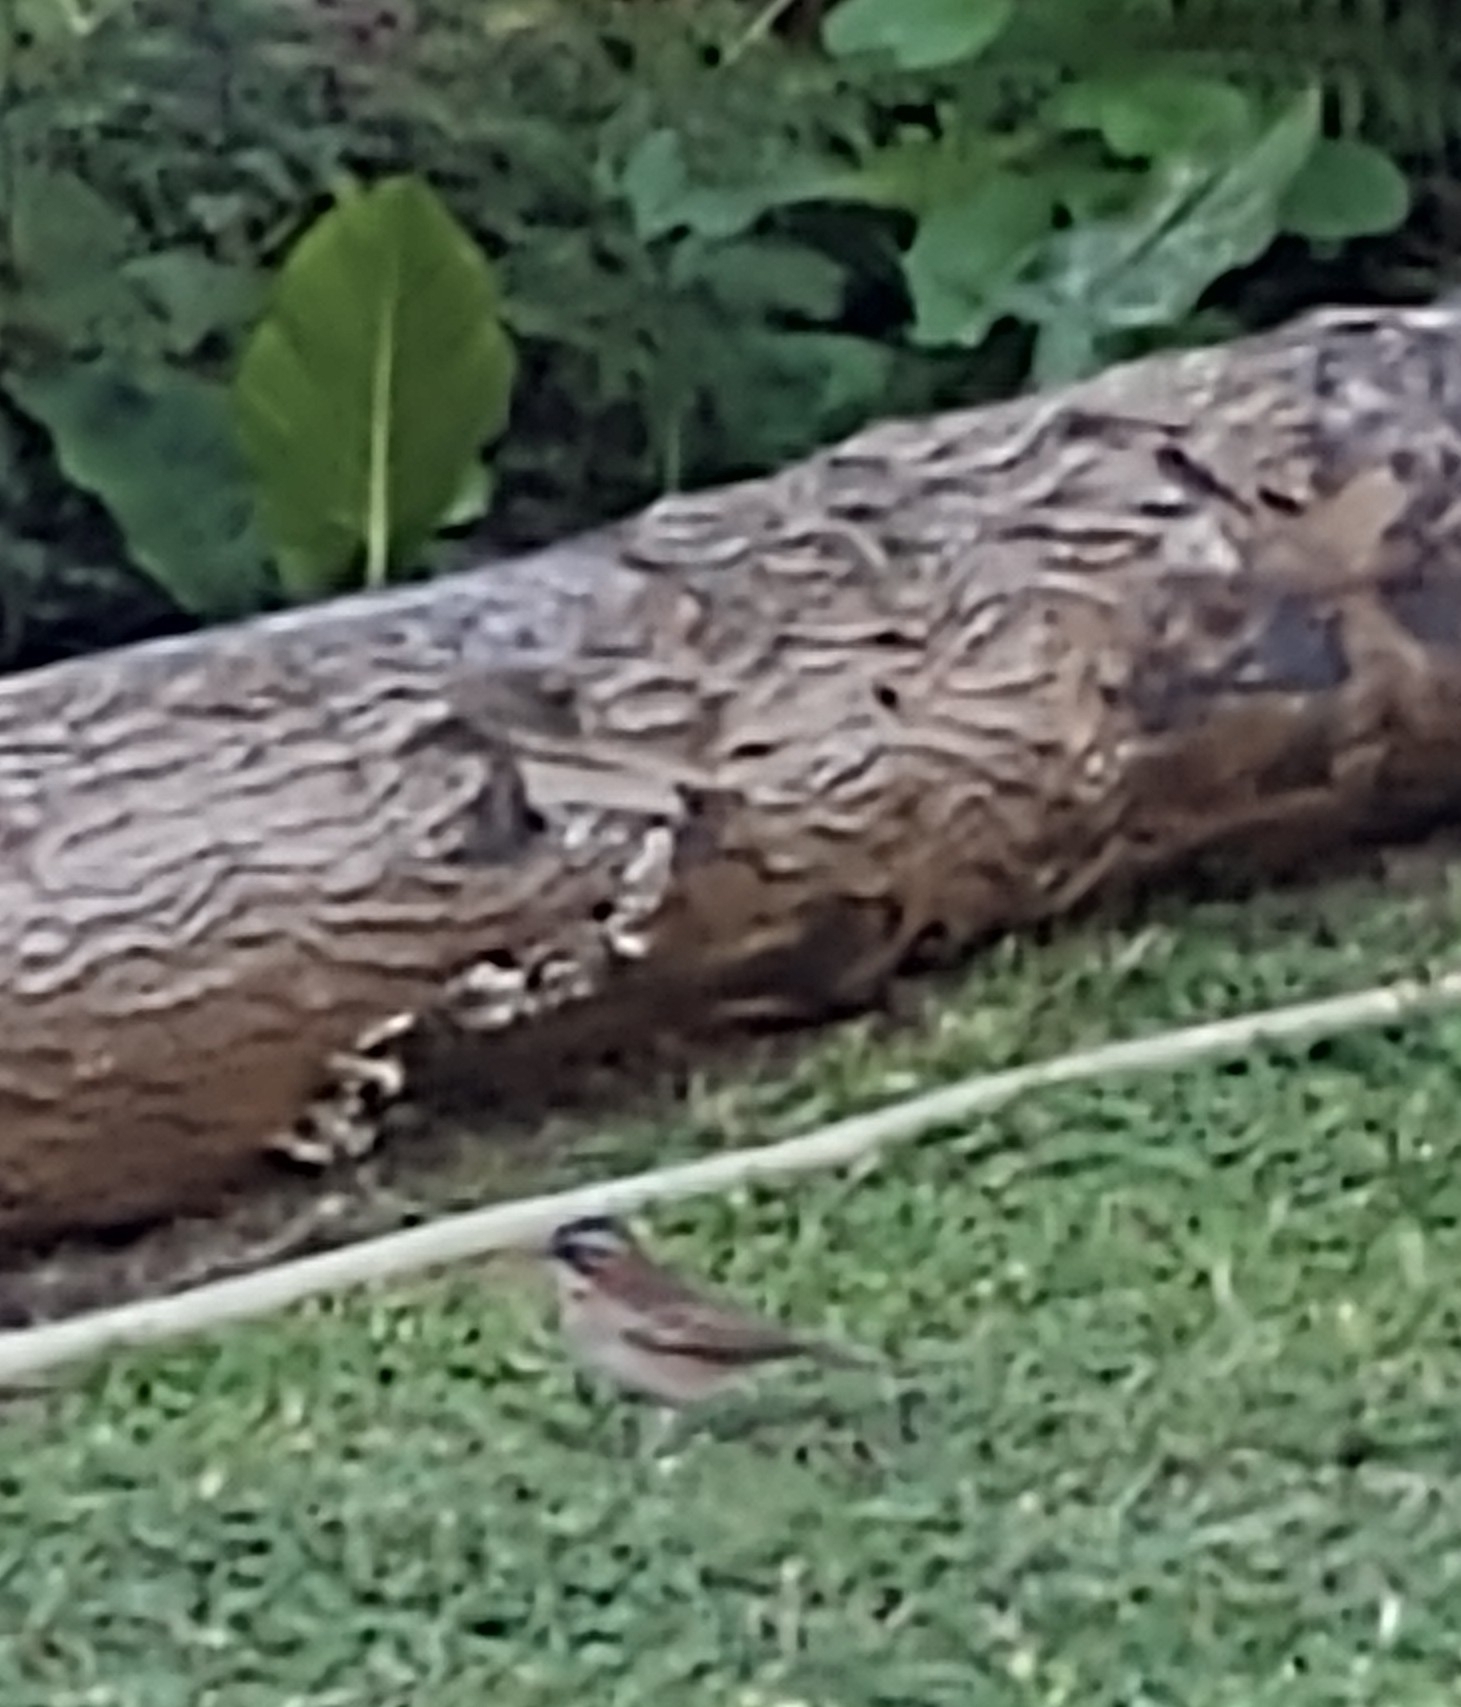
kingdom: Animalia
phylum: Chordata
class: Aves
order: Passeriformes
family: Passerellidae
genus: Zonotrichia
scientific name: Zonotrichia capensis
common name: Rufous-collared sparrow
